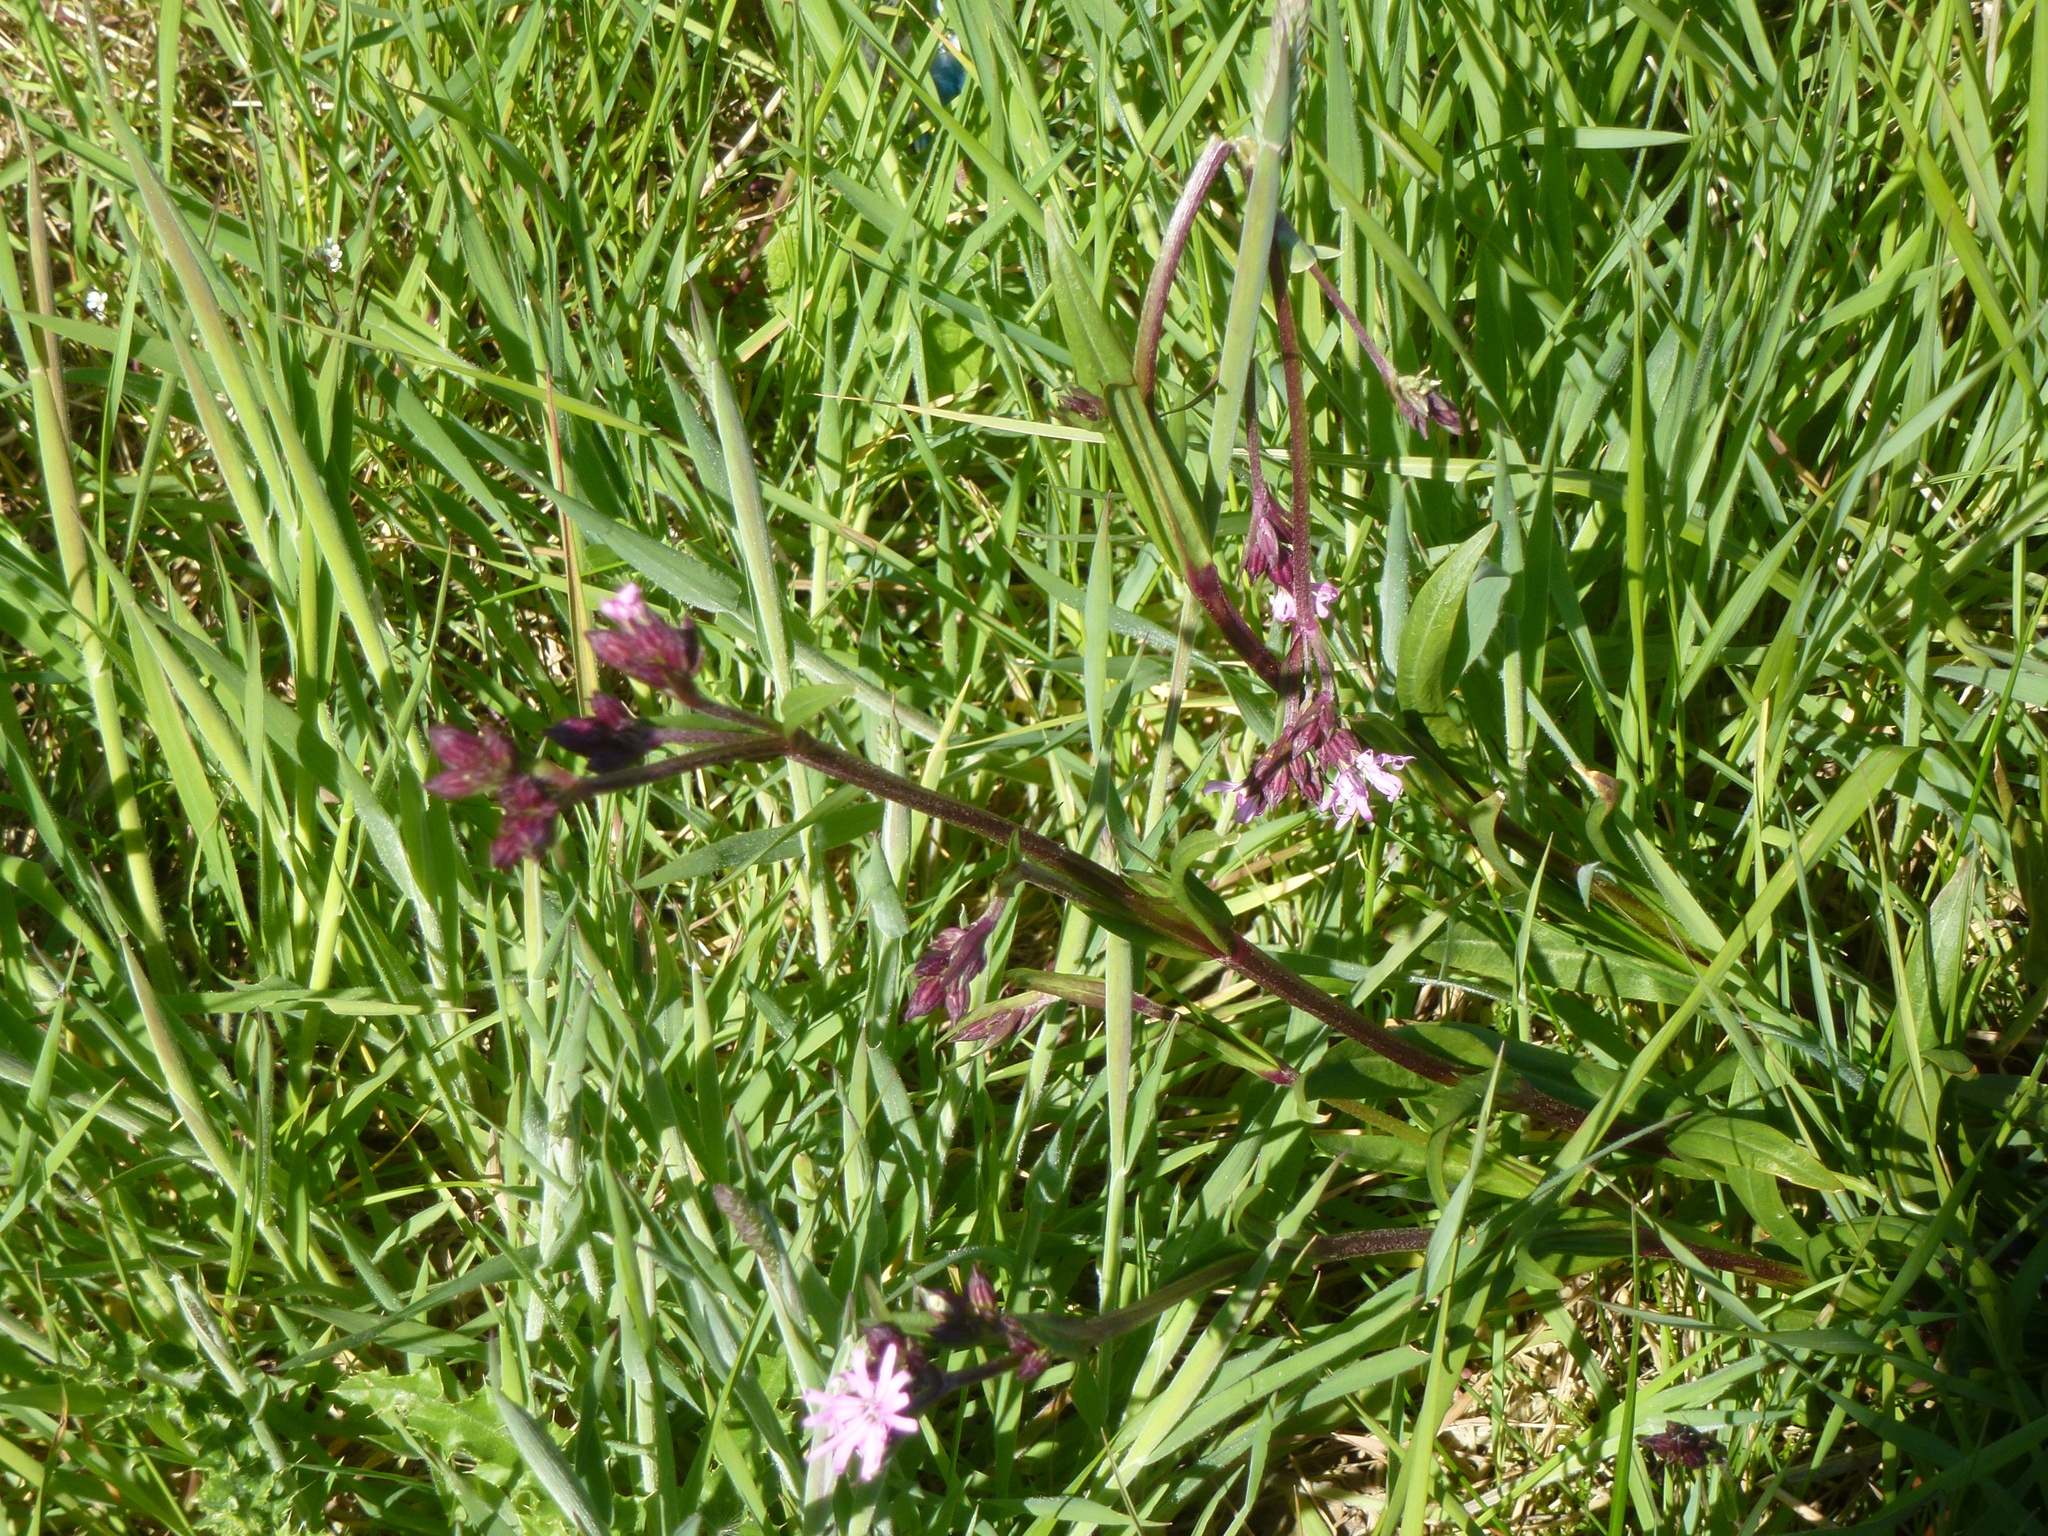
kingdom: Plantae
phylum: Tracheophyta
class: Magnoliopsida
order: Caryophyllales
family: Caryophyllaceae
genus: Silene
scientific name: Silene flos-cuculi
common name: Ragged-robin
